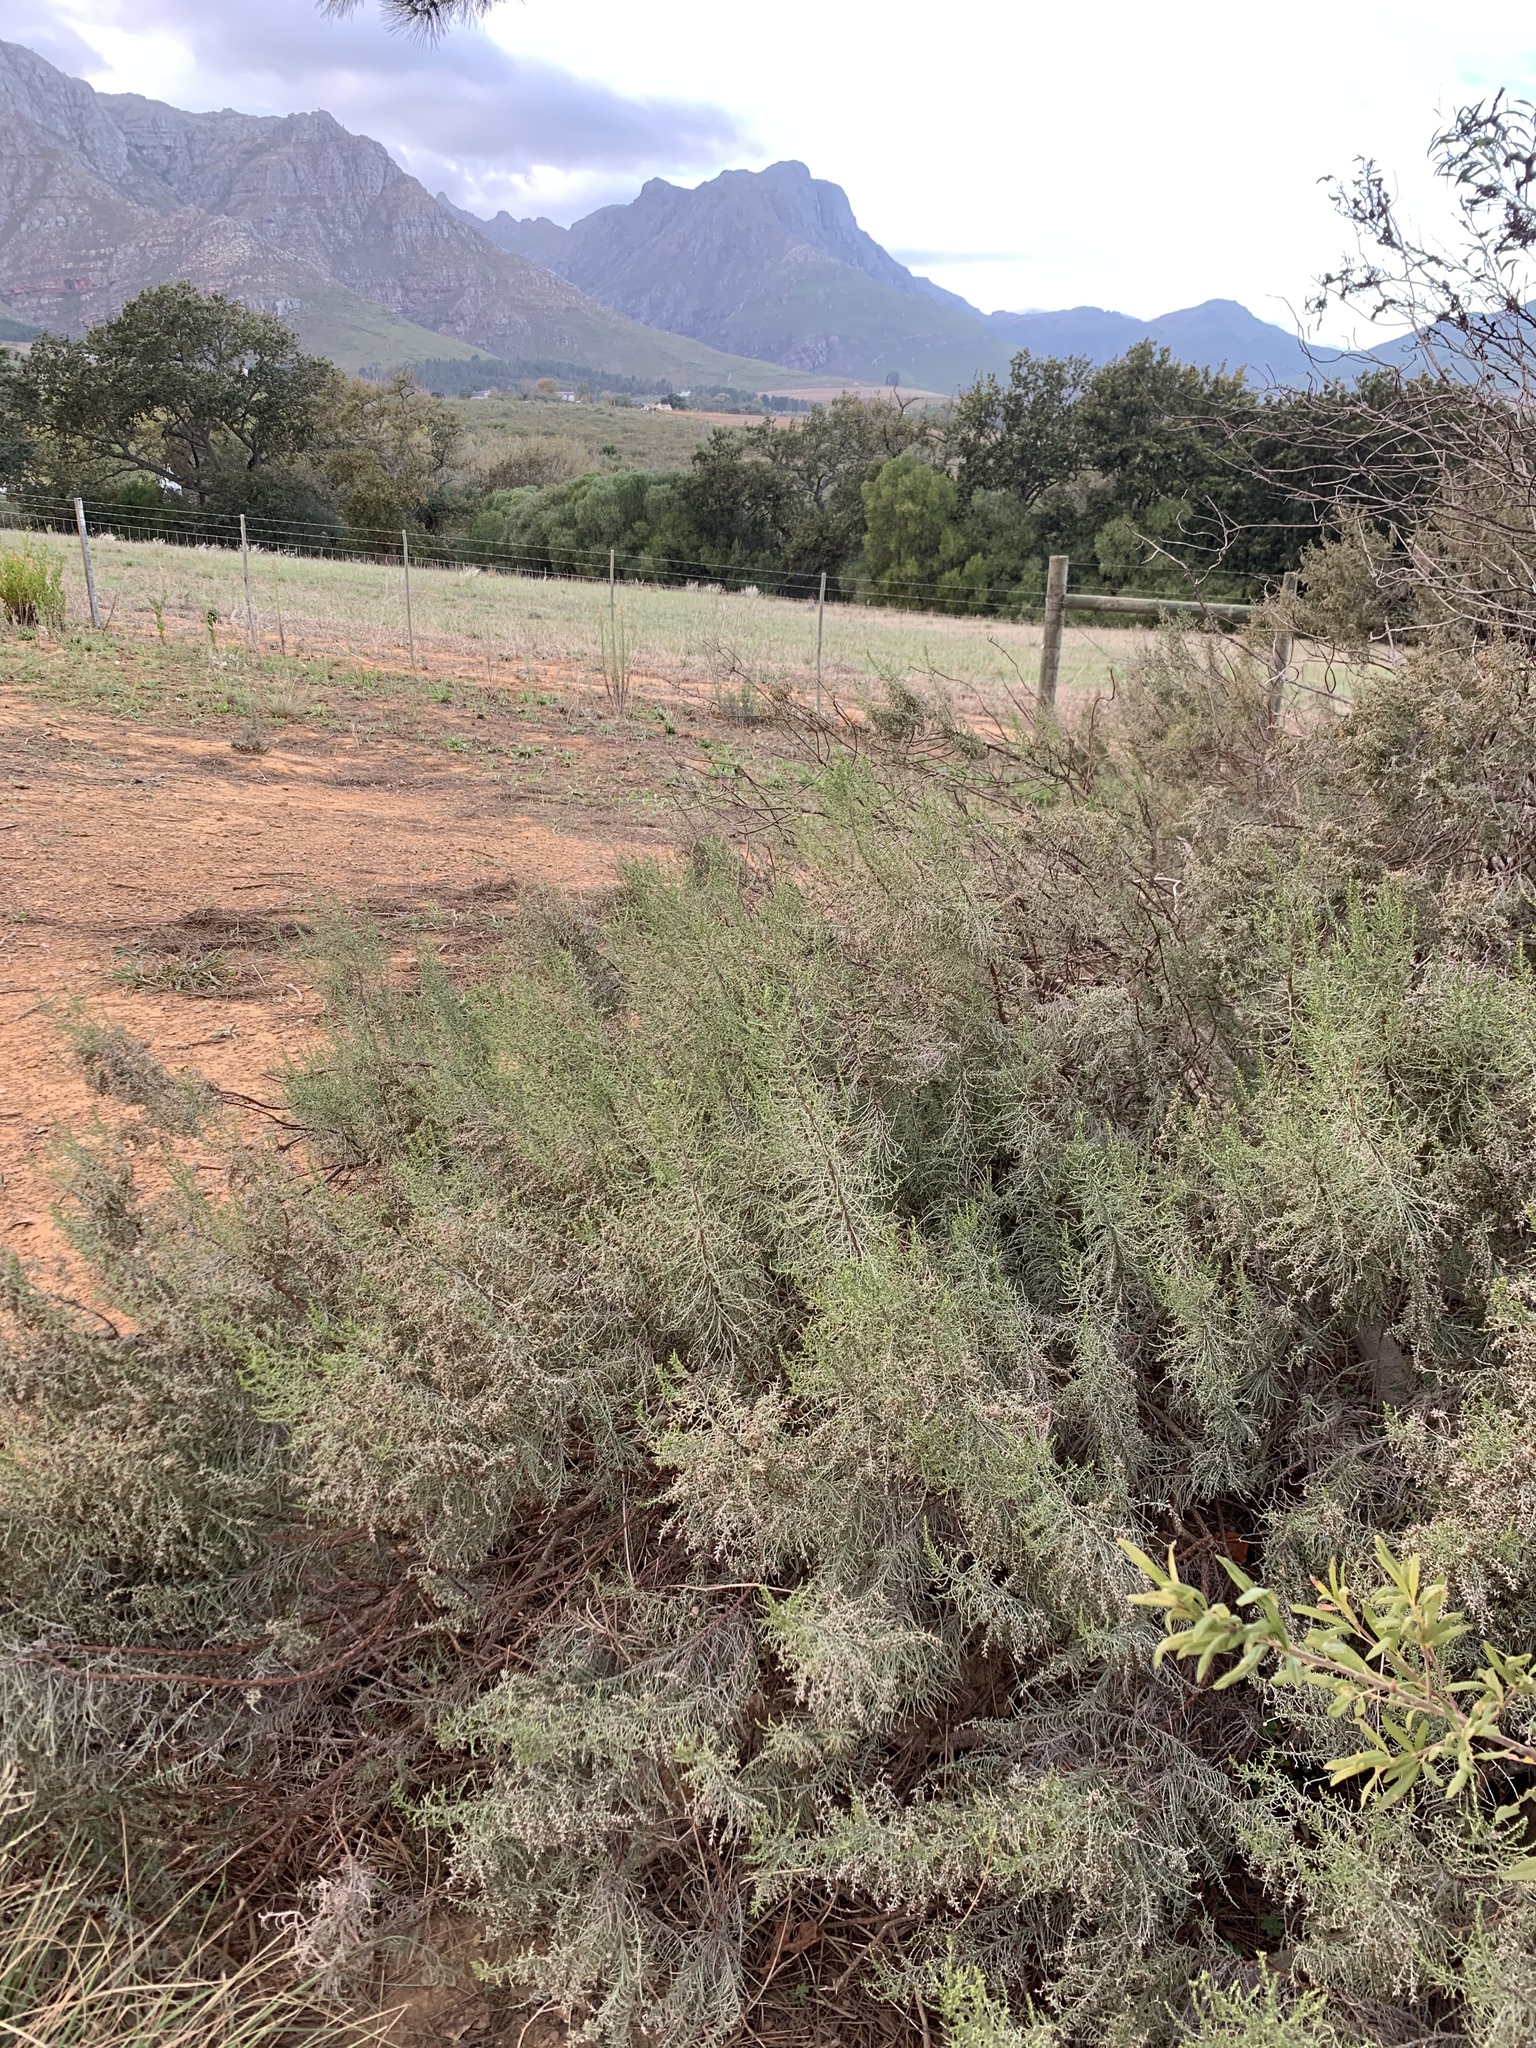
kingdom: Plantae
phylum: Tracheophyta
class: Magnoliopsida
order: Asterales
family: Asteraceae
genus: Dicerothamnus
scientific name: Dicerothamnus rhinocerotis
